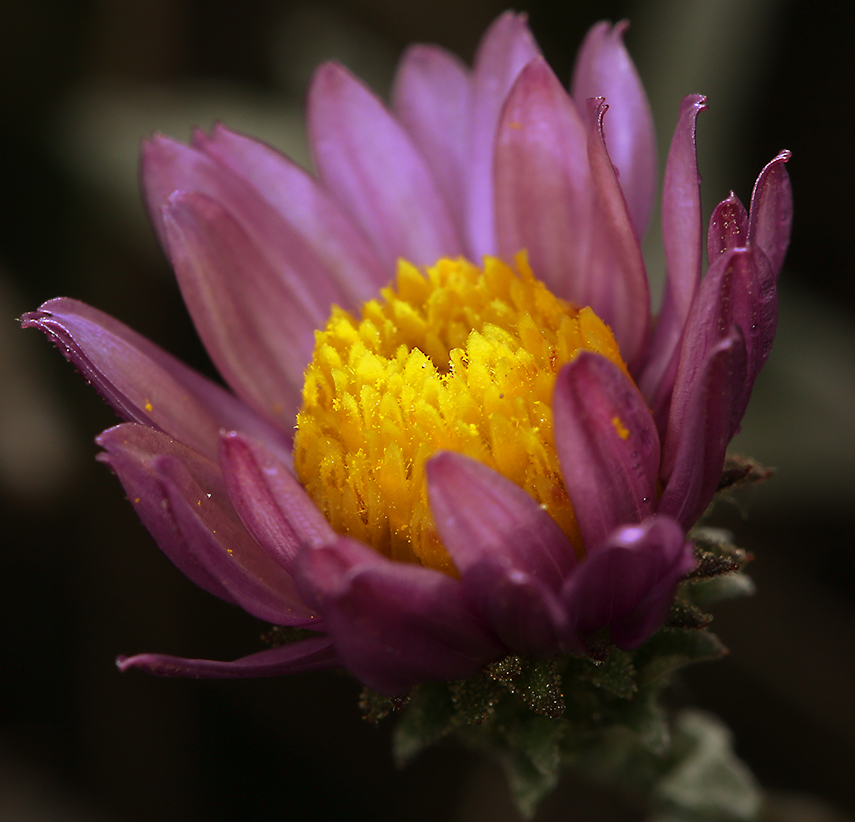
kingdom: Plantae
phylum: Tracheophyta
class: Magnoliopsida
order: Asterales
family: Asteraceae
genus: Corethrogyne
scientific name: Corethrogyne filaginifolia
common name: Sand-aster
